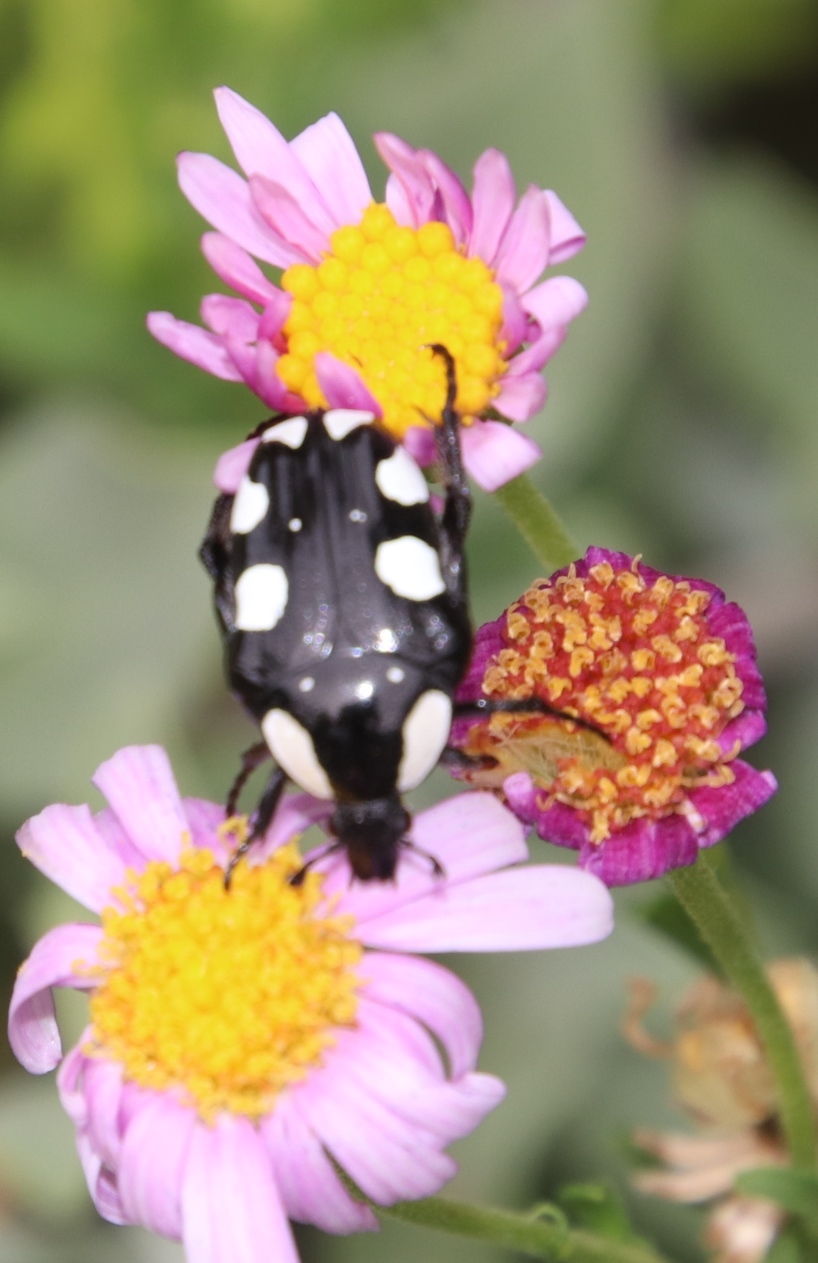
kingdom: Animalia
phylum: Arthropoda
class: Insecta
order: Coleoptera
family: Scarabaeidae
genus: Mausoleopsis
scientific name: Mausoleopsis amabilis
